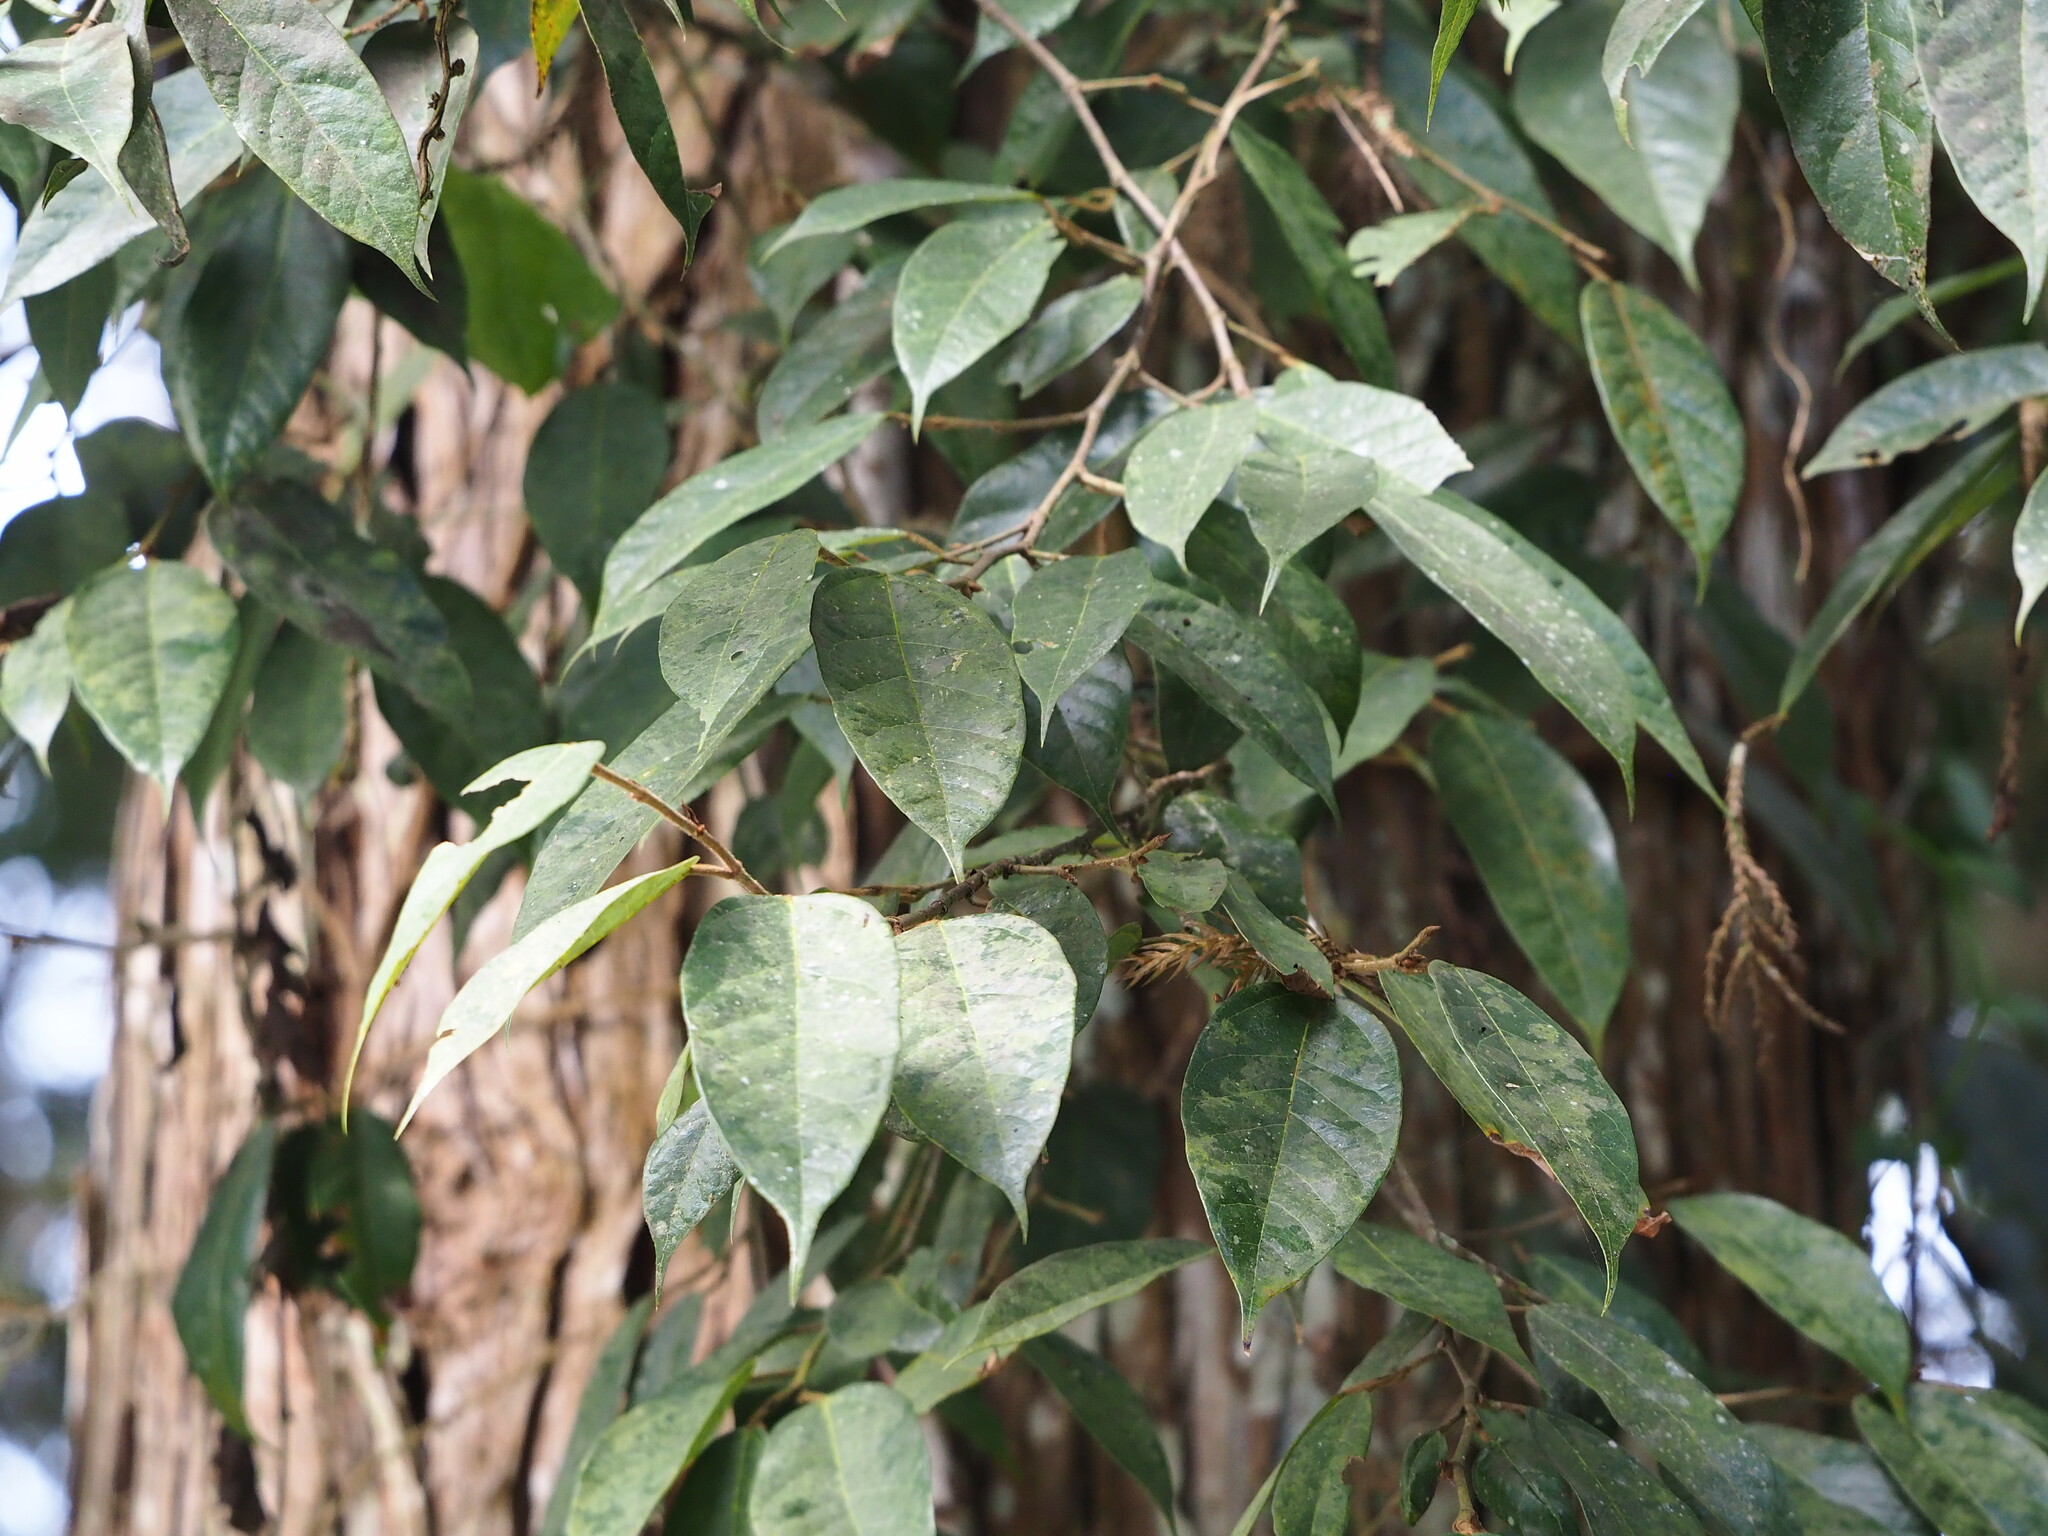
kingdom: Plantae
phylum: Tracheophyta
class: Magnoliopsida
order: Rosales
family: Moraceae
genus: Ficus
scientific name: Ficus sarmentosa
